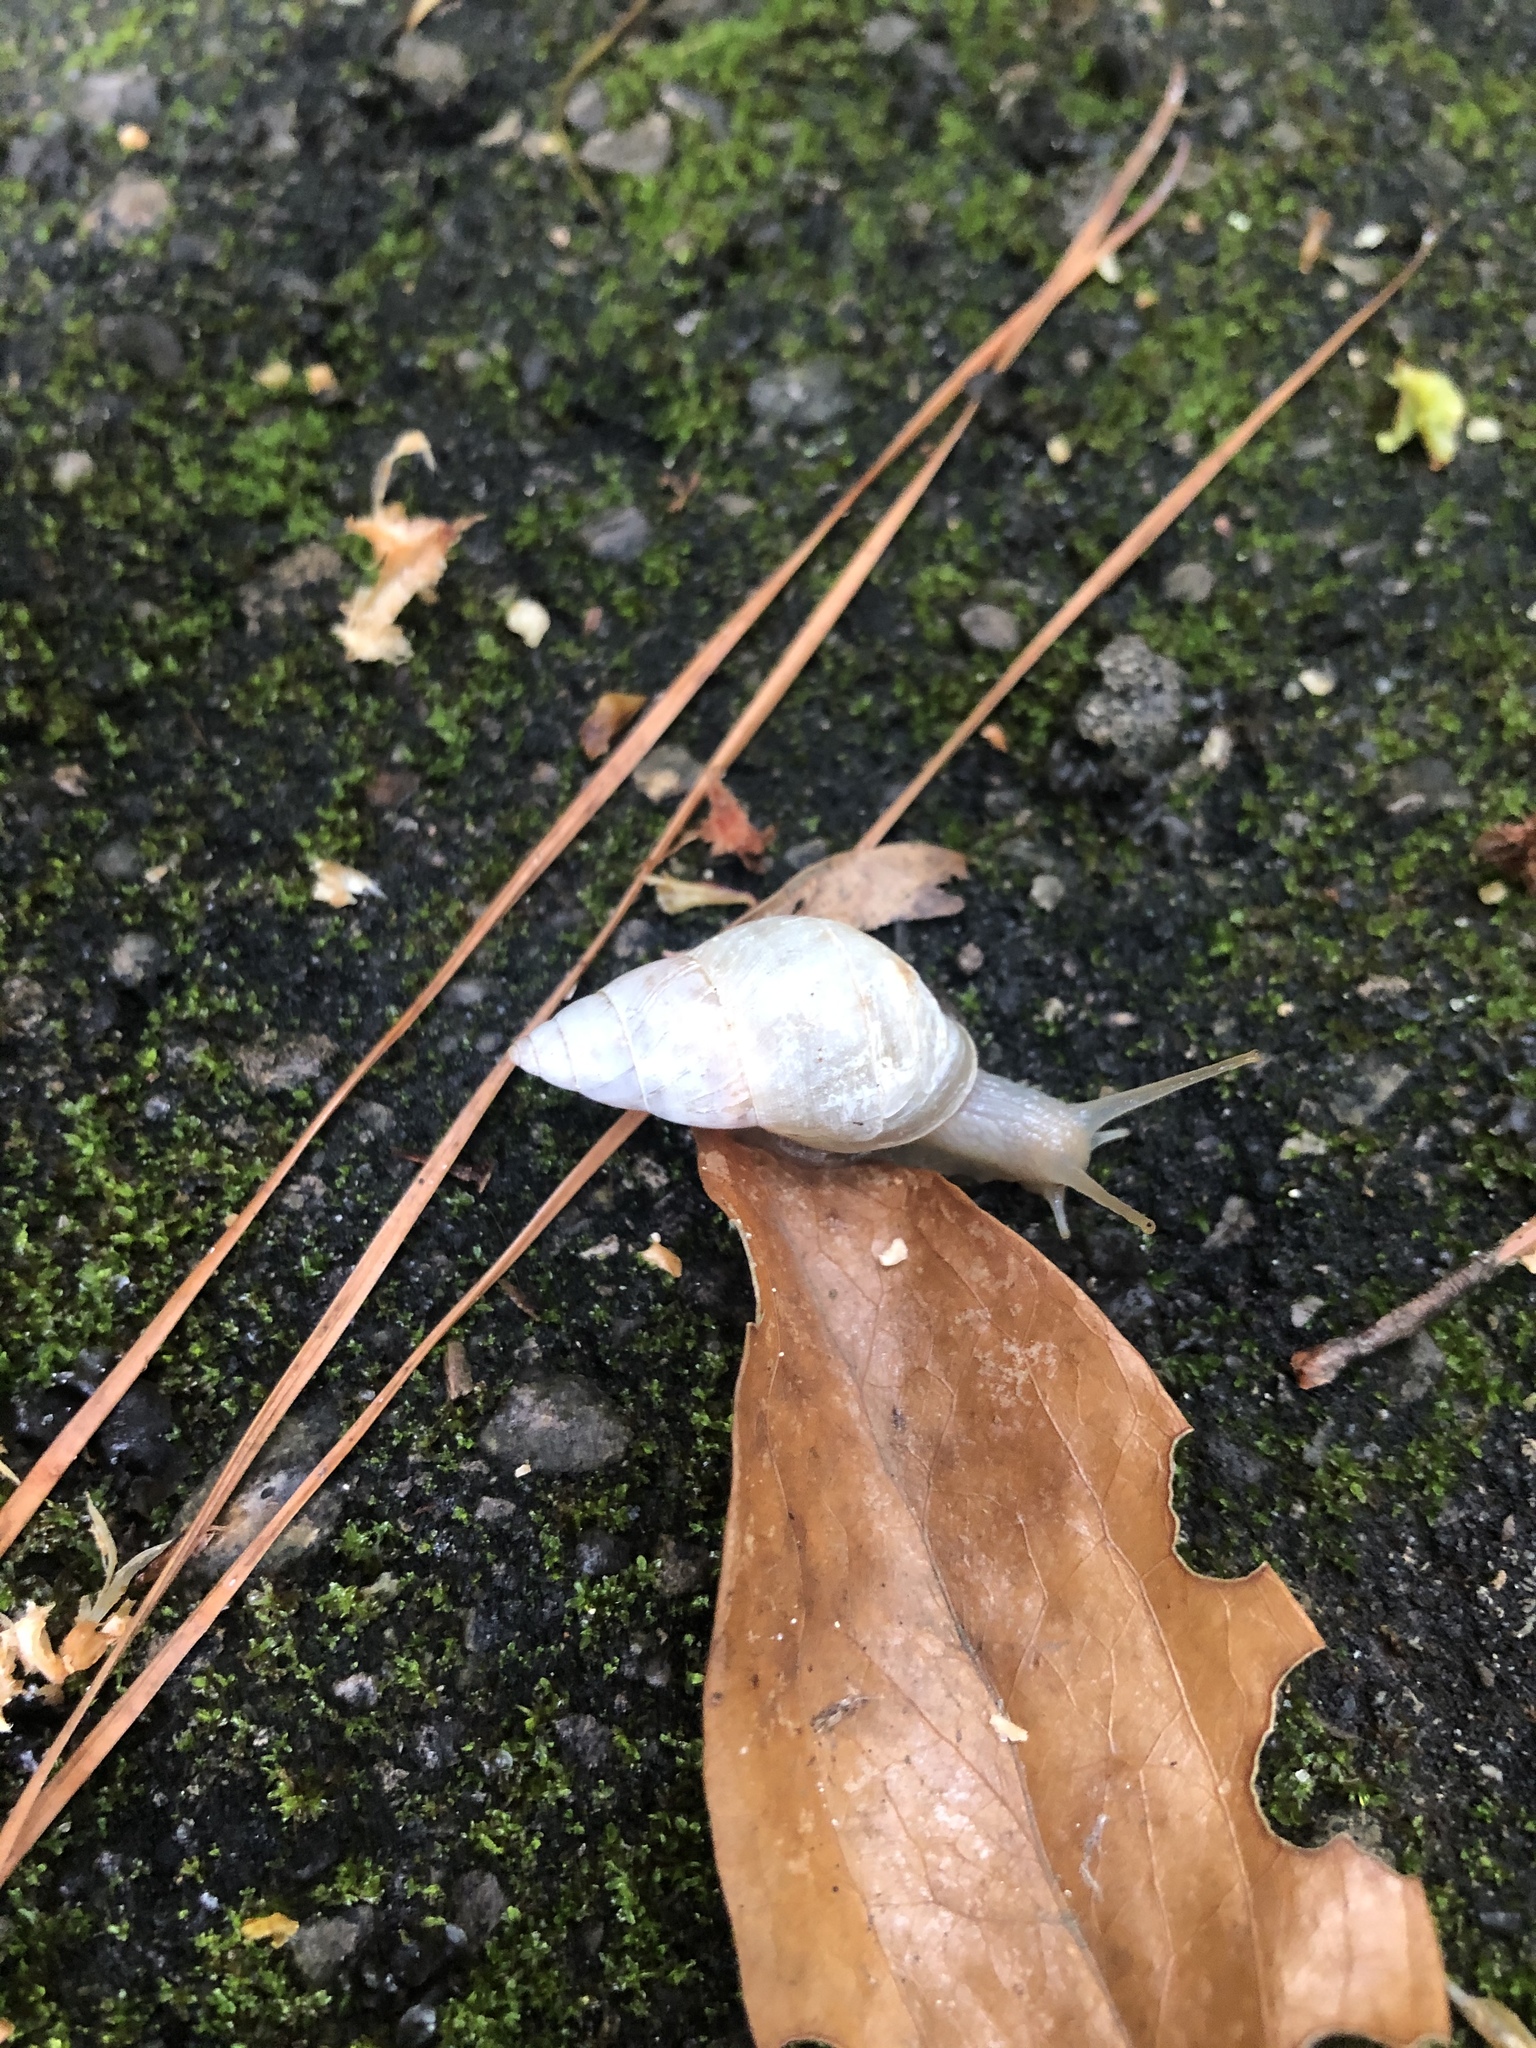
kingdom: Animalia
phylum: Mollusca
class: Gastropoda
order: Stylommatophora
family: Bulimulidae
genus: Drymaeus
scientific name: Drymaeus dormani
